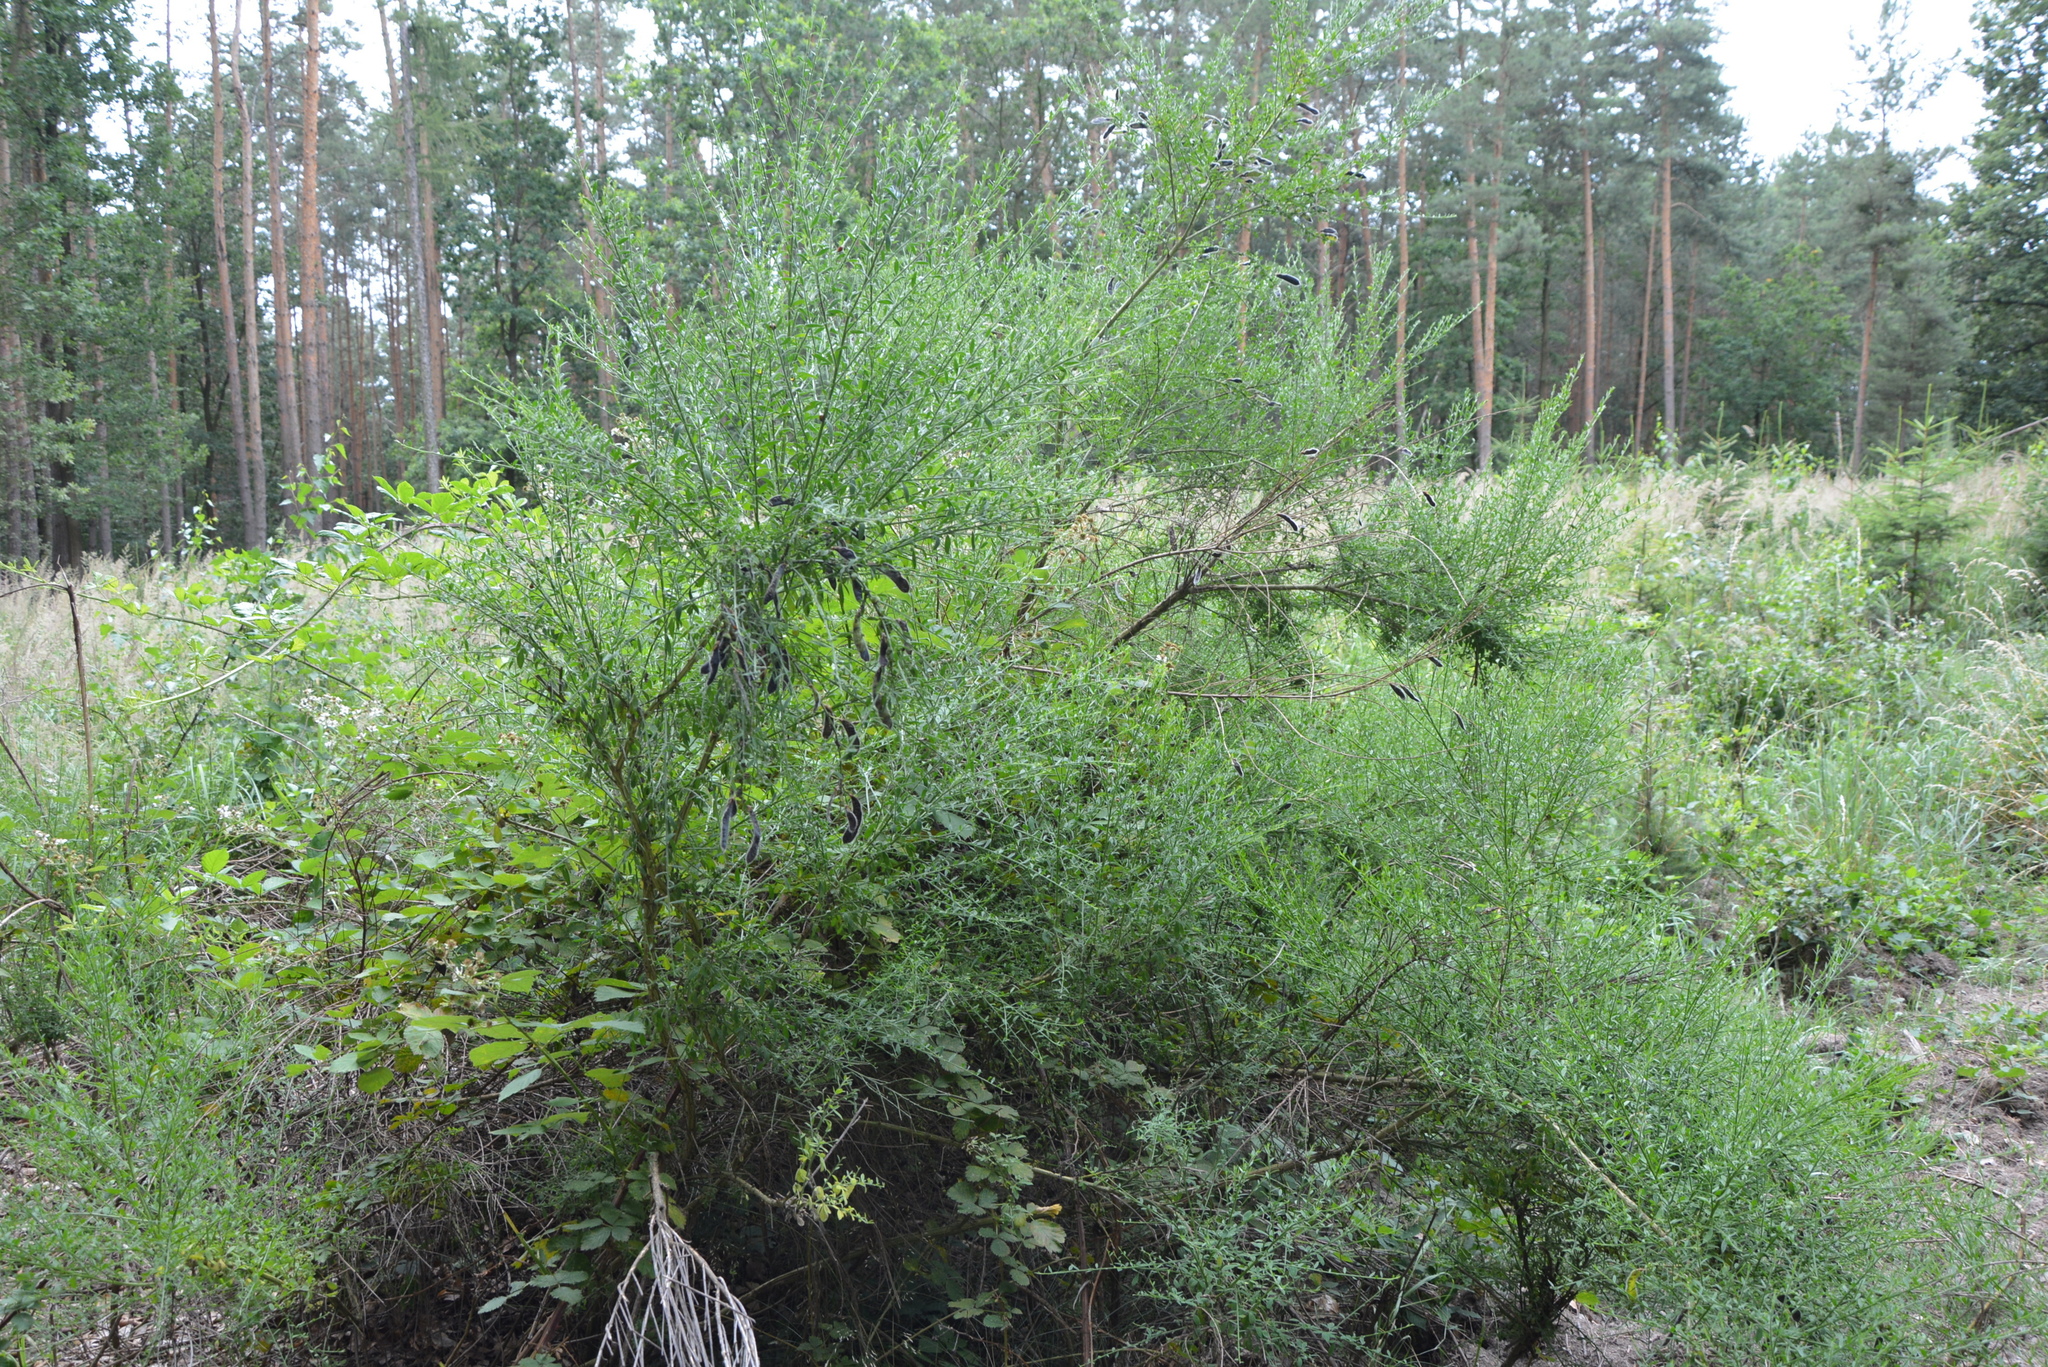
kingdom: Plantae
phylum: Tracheophyta
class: Magnoliopsida
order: Fabales
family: Fabaceae
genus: Cytisus
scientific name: Cytisus scoparius
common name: Scotch broom
